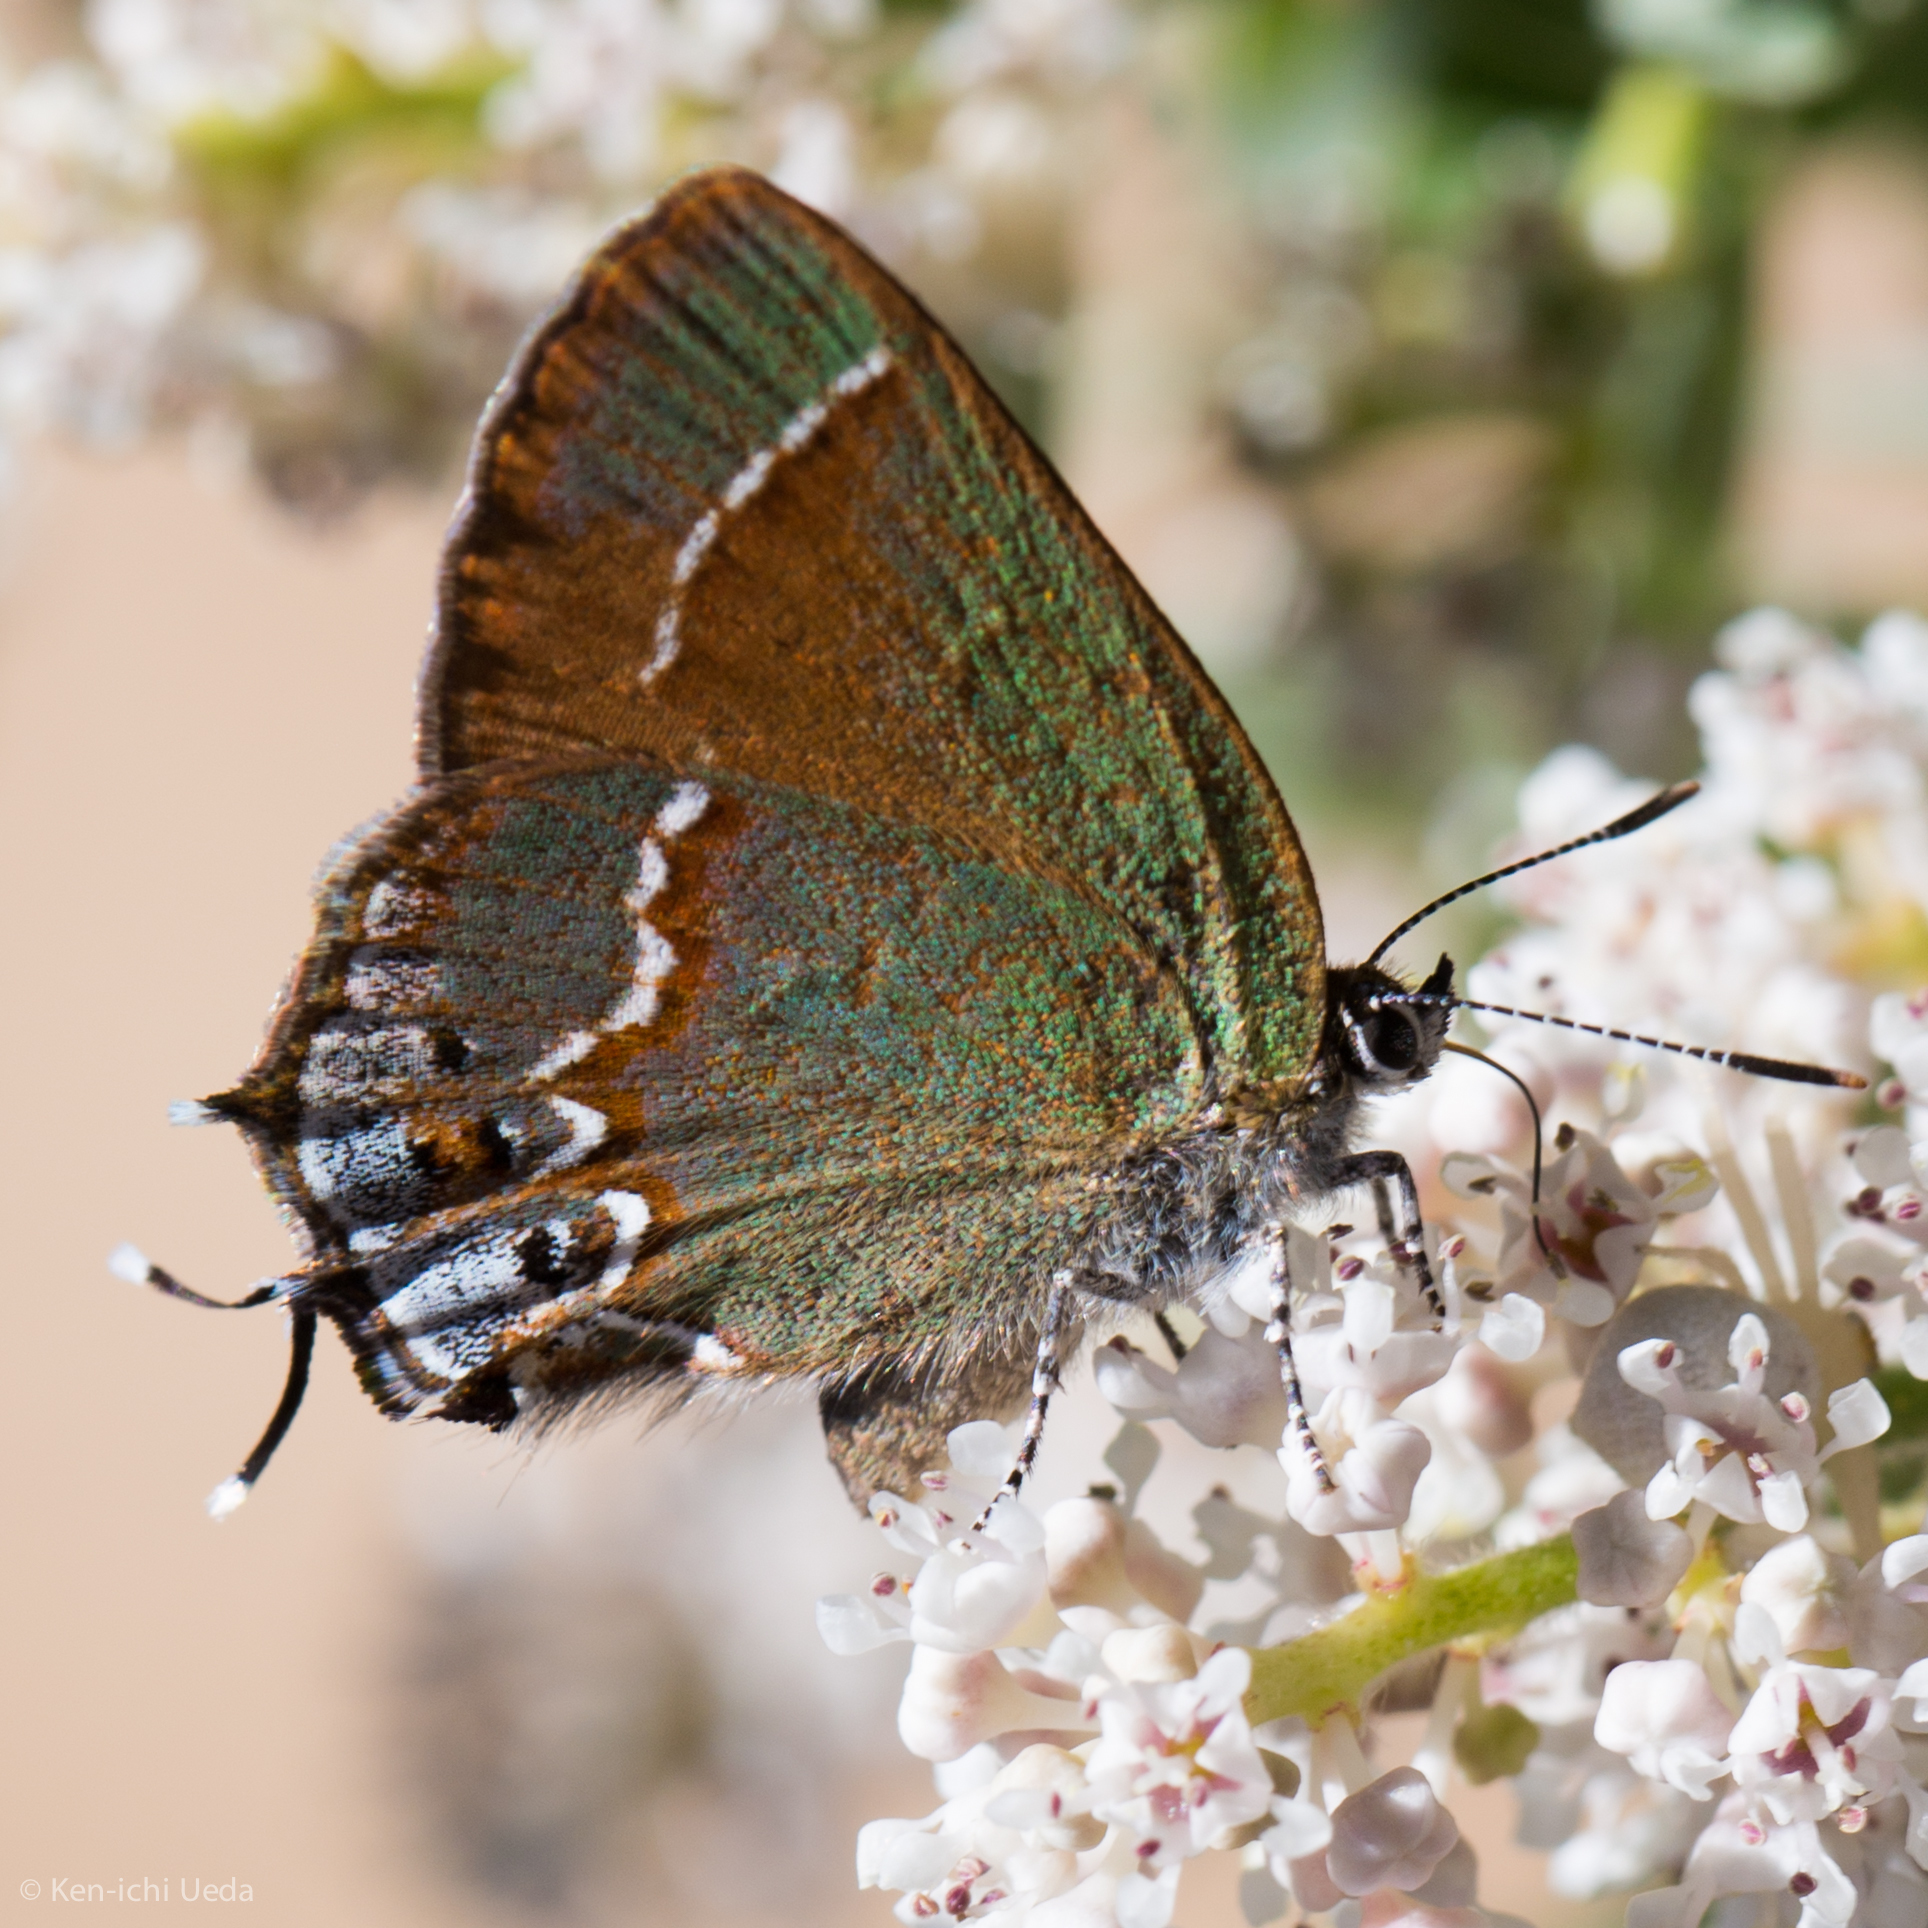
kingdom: Animalia
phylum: Arthropoda
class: Insecta
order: Lepidoptera
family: Lycaenidae
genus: Mitoura
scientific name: Mitoura gryneus
